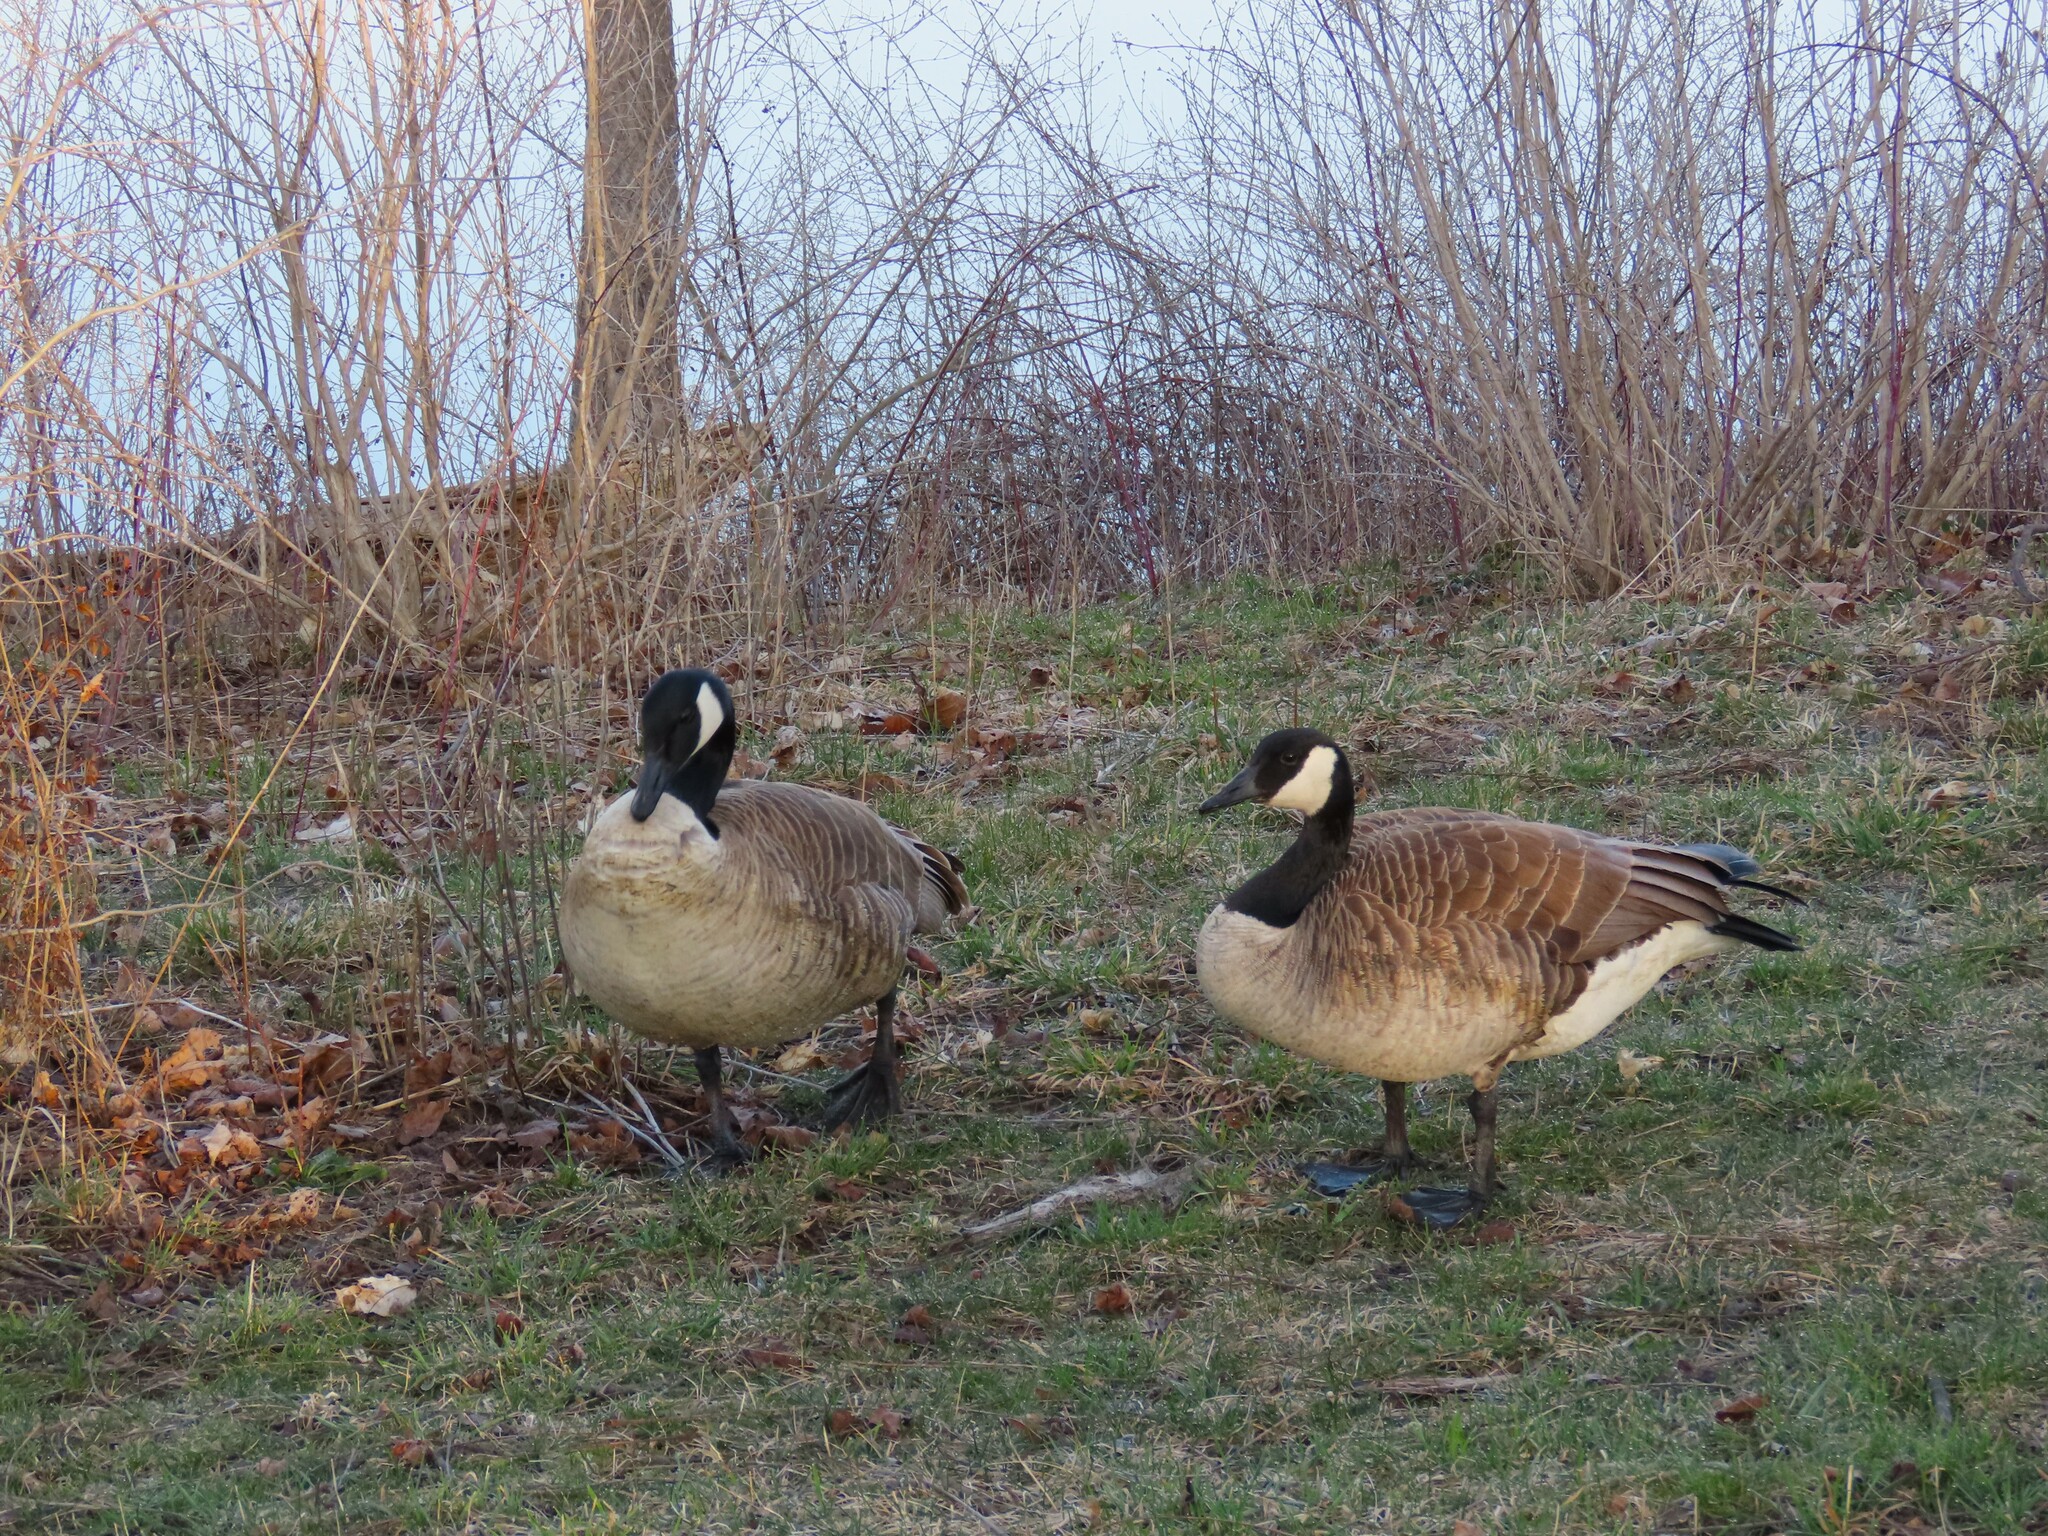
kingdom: Animalia
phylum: Chordata
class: Aves
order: Anseriformes
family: Anatidae
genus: Branta
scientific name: Branta canadensis
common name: Canada goose
